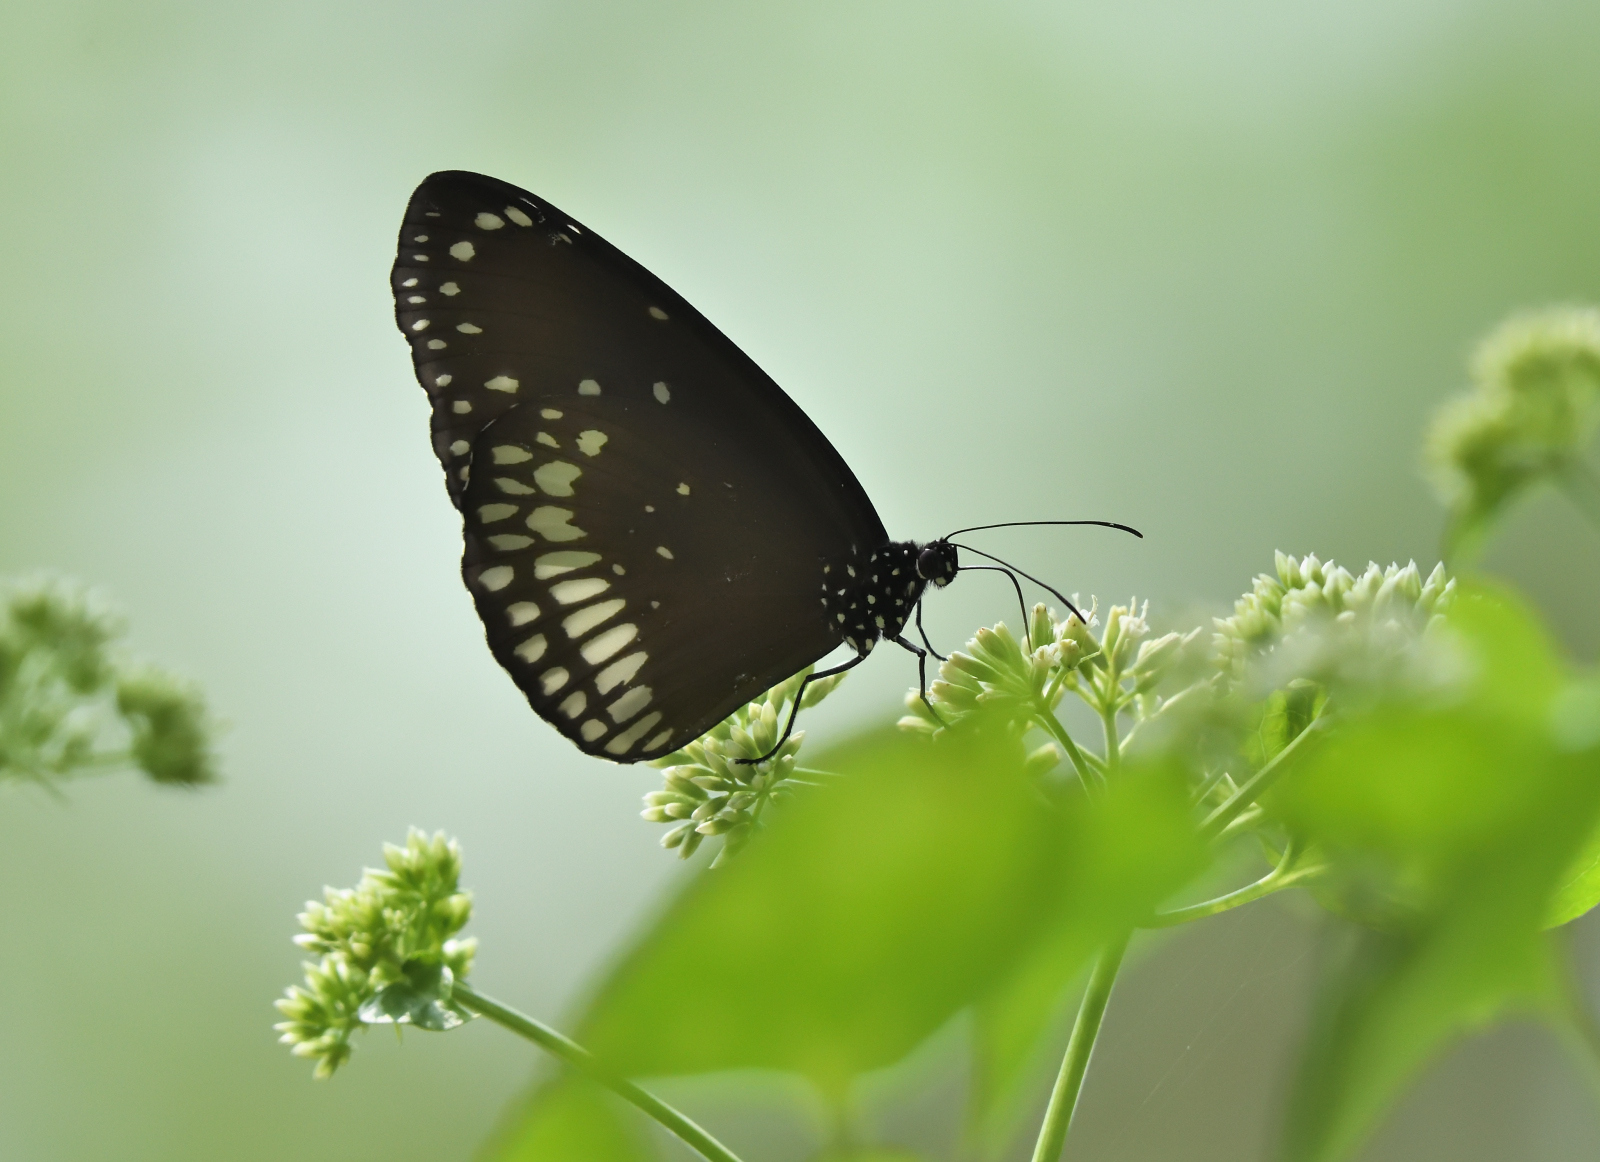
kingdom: Animalia
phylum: Arthropoda
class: Insecta
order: Lepidoptera
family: Nymphalidae
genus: Euploea
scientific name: Euploea core
